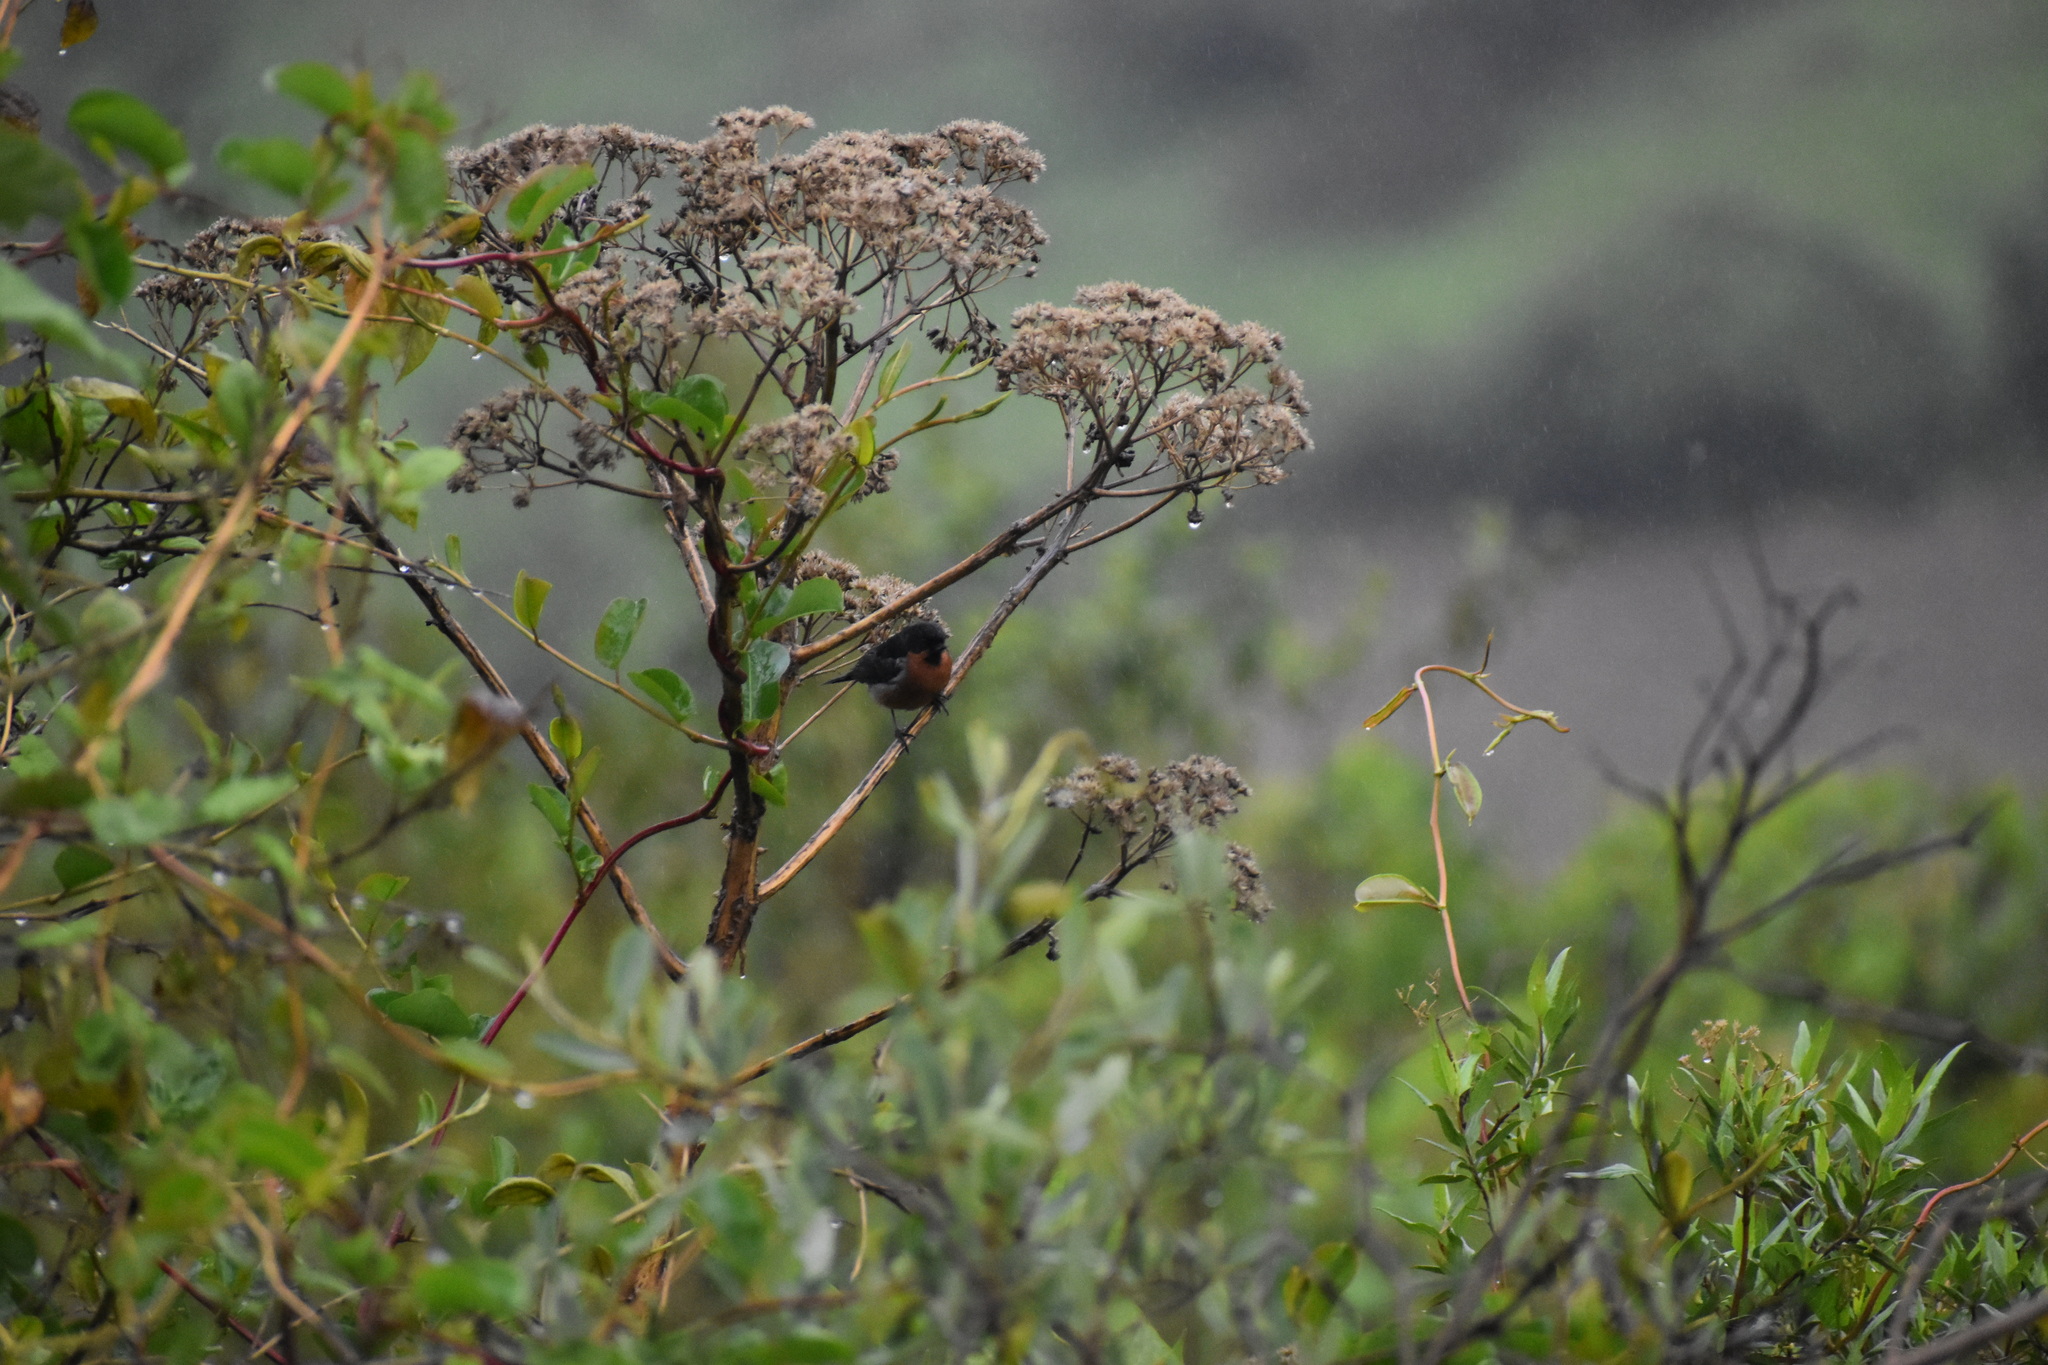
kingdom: Animalia
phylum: Chordata
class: Aves
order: Passeriformes
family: Thraupidae
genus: Diglossa
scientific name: Diglossa brunneiventris
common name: Black-throated flowerpiercer
